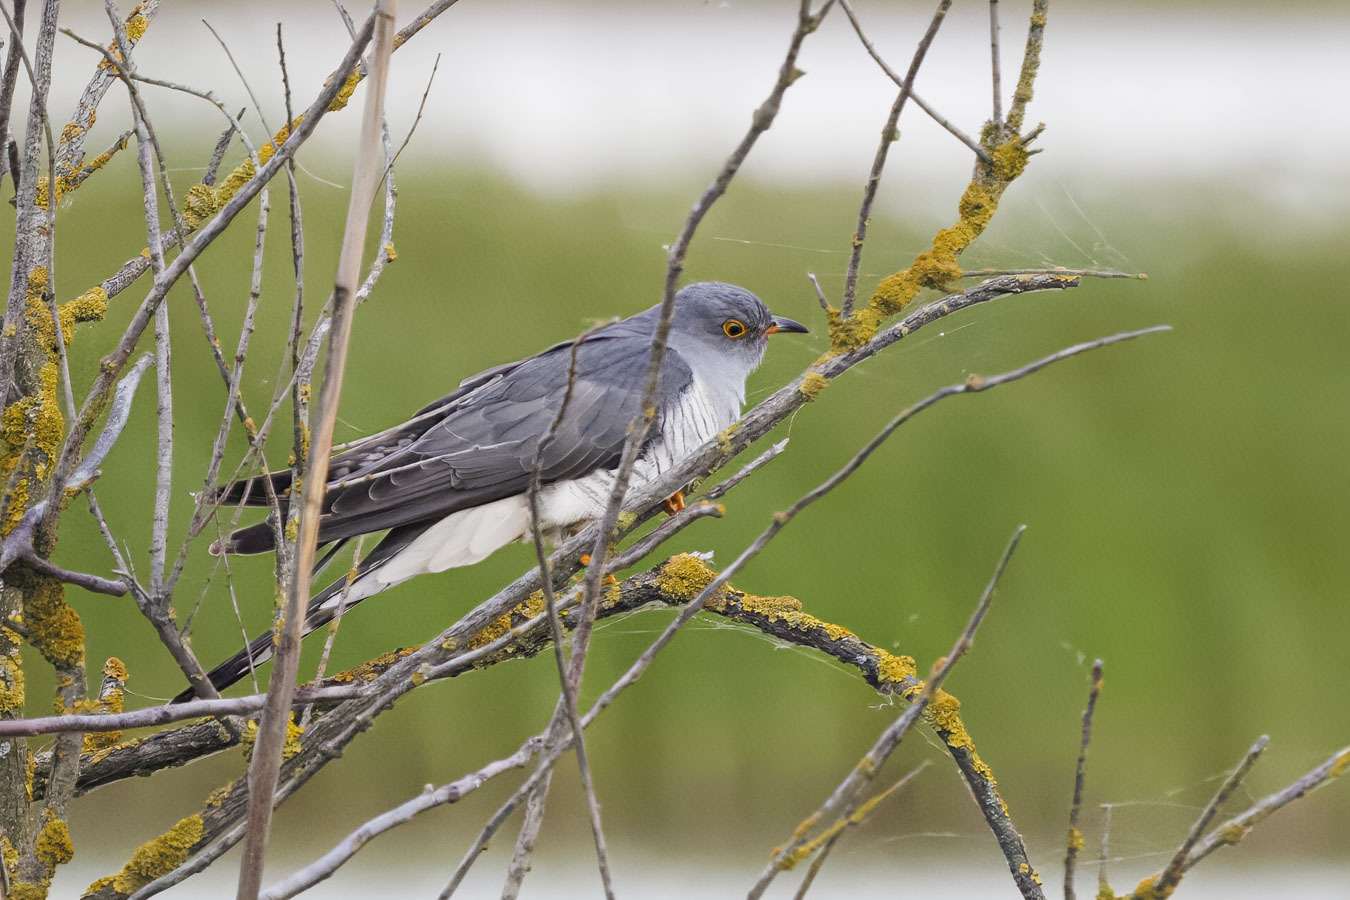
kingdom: Animalia
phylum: Chordata
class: Aves
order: Cuculiformes
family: Cuculidae
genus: Cuculus
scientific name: Cuculus canorus
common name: Common cuckoo
